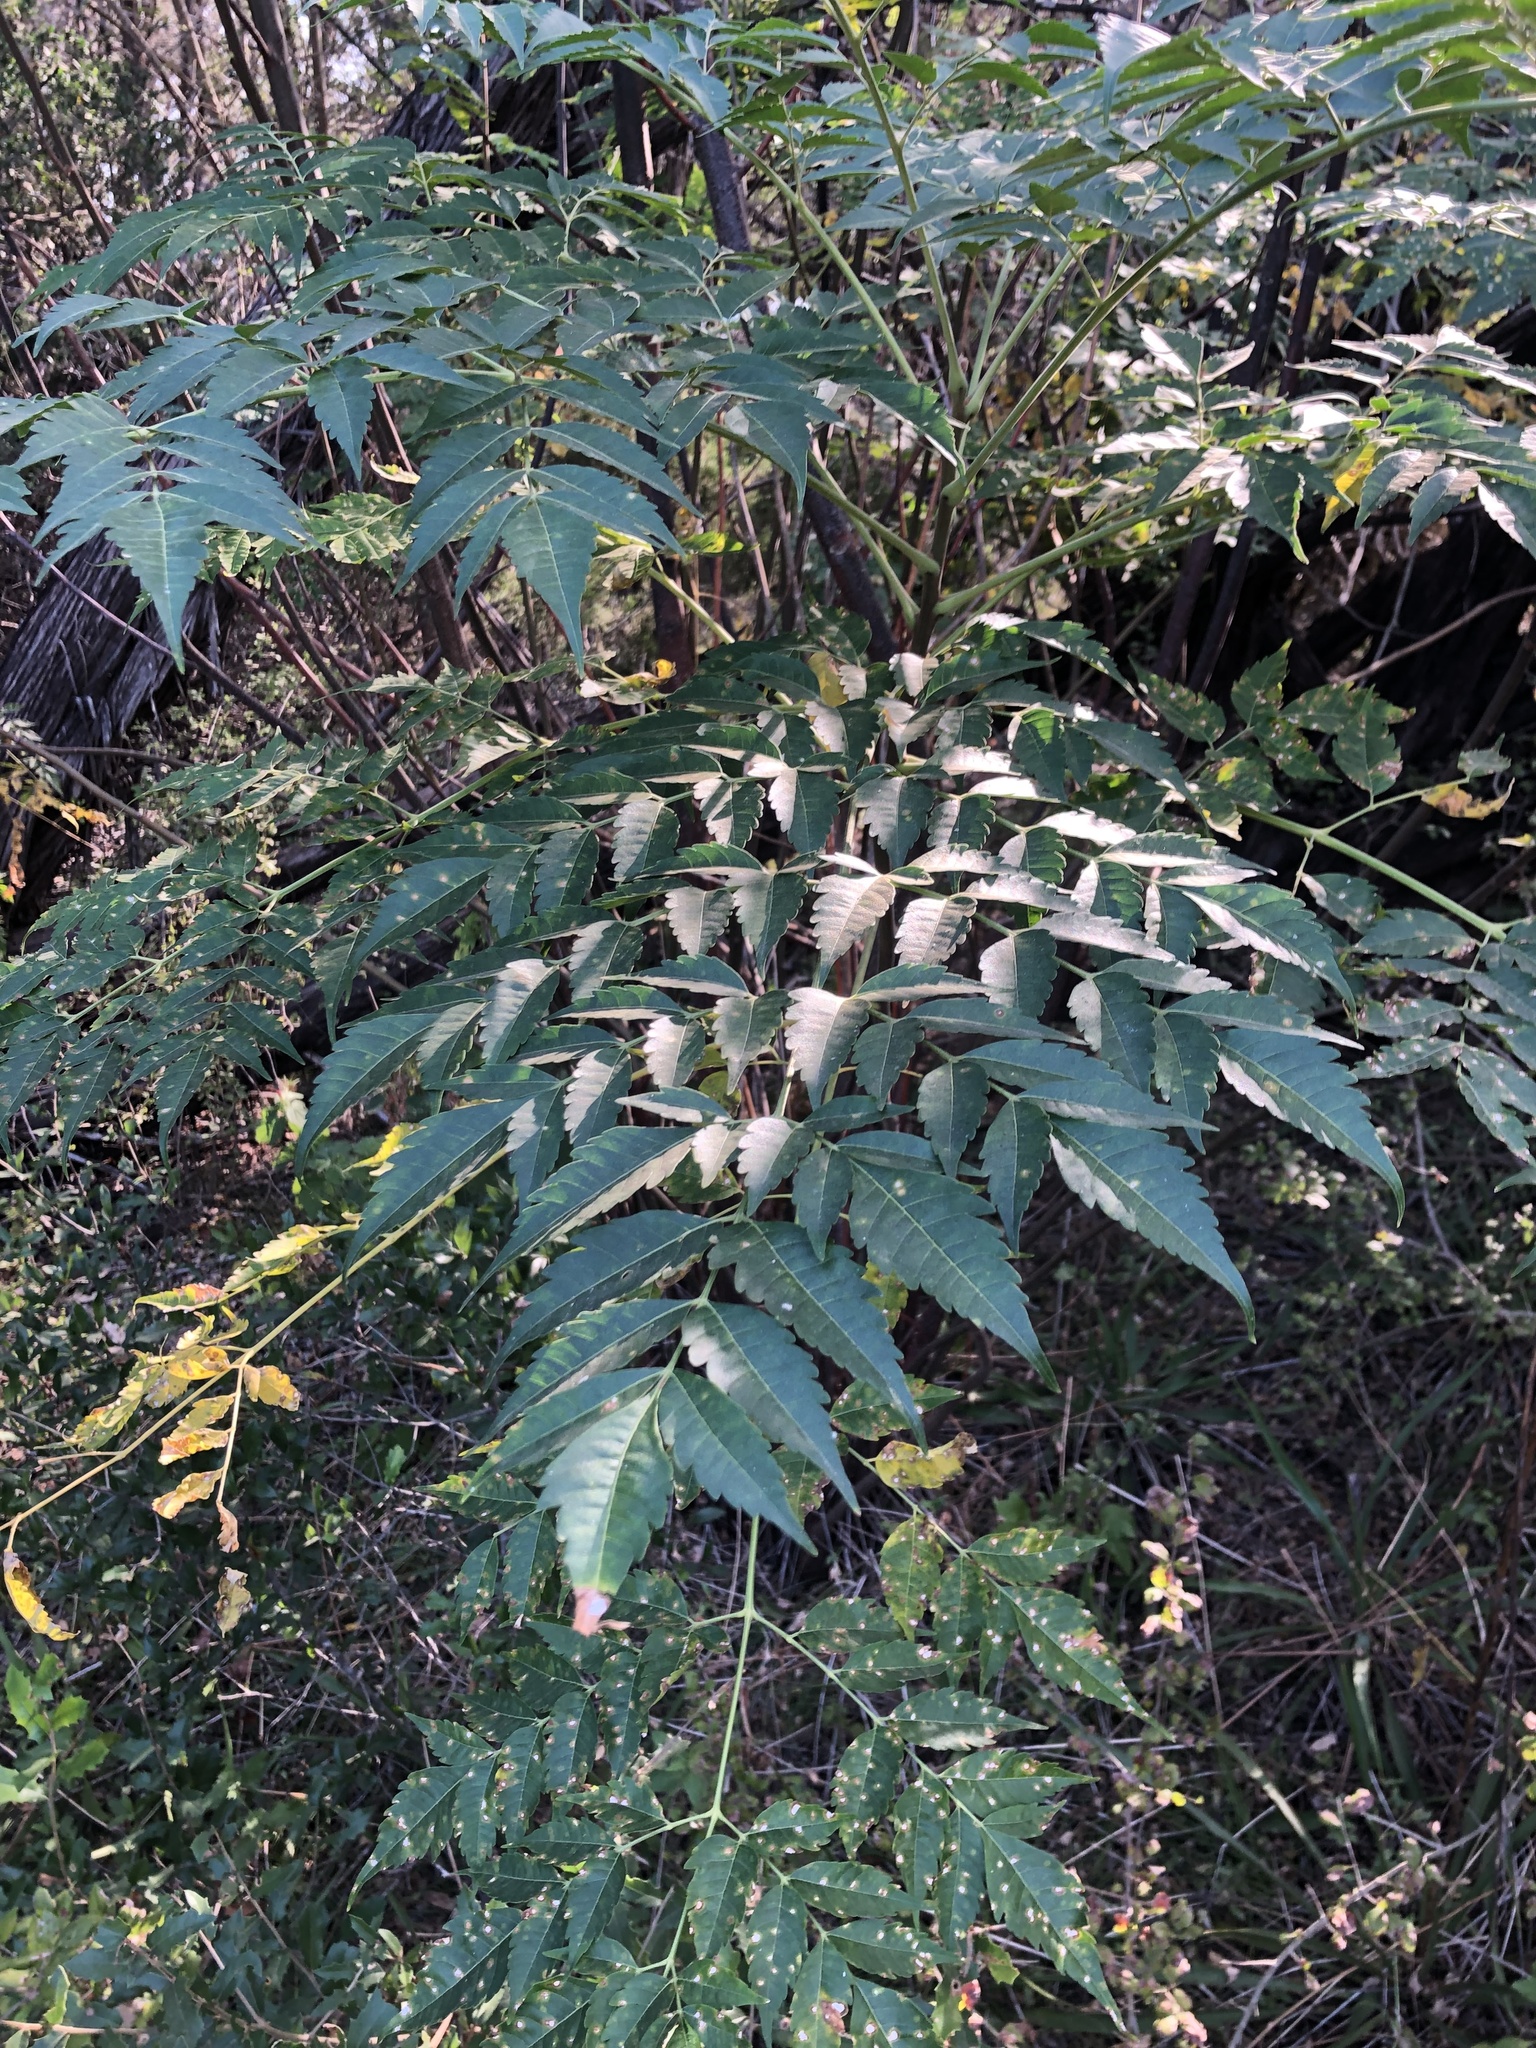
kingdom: Plantae
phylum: Tracheophyta
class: Magnoliopsida
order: Sapindales
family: Meliaceae
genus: Melia
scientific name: Melia azedarach
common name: Chinaberrytree
